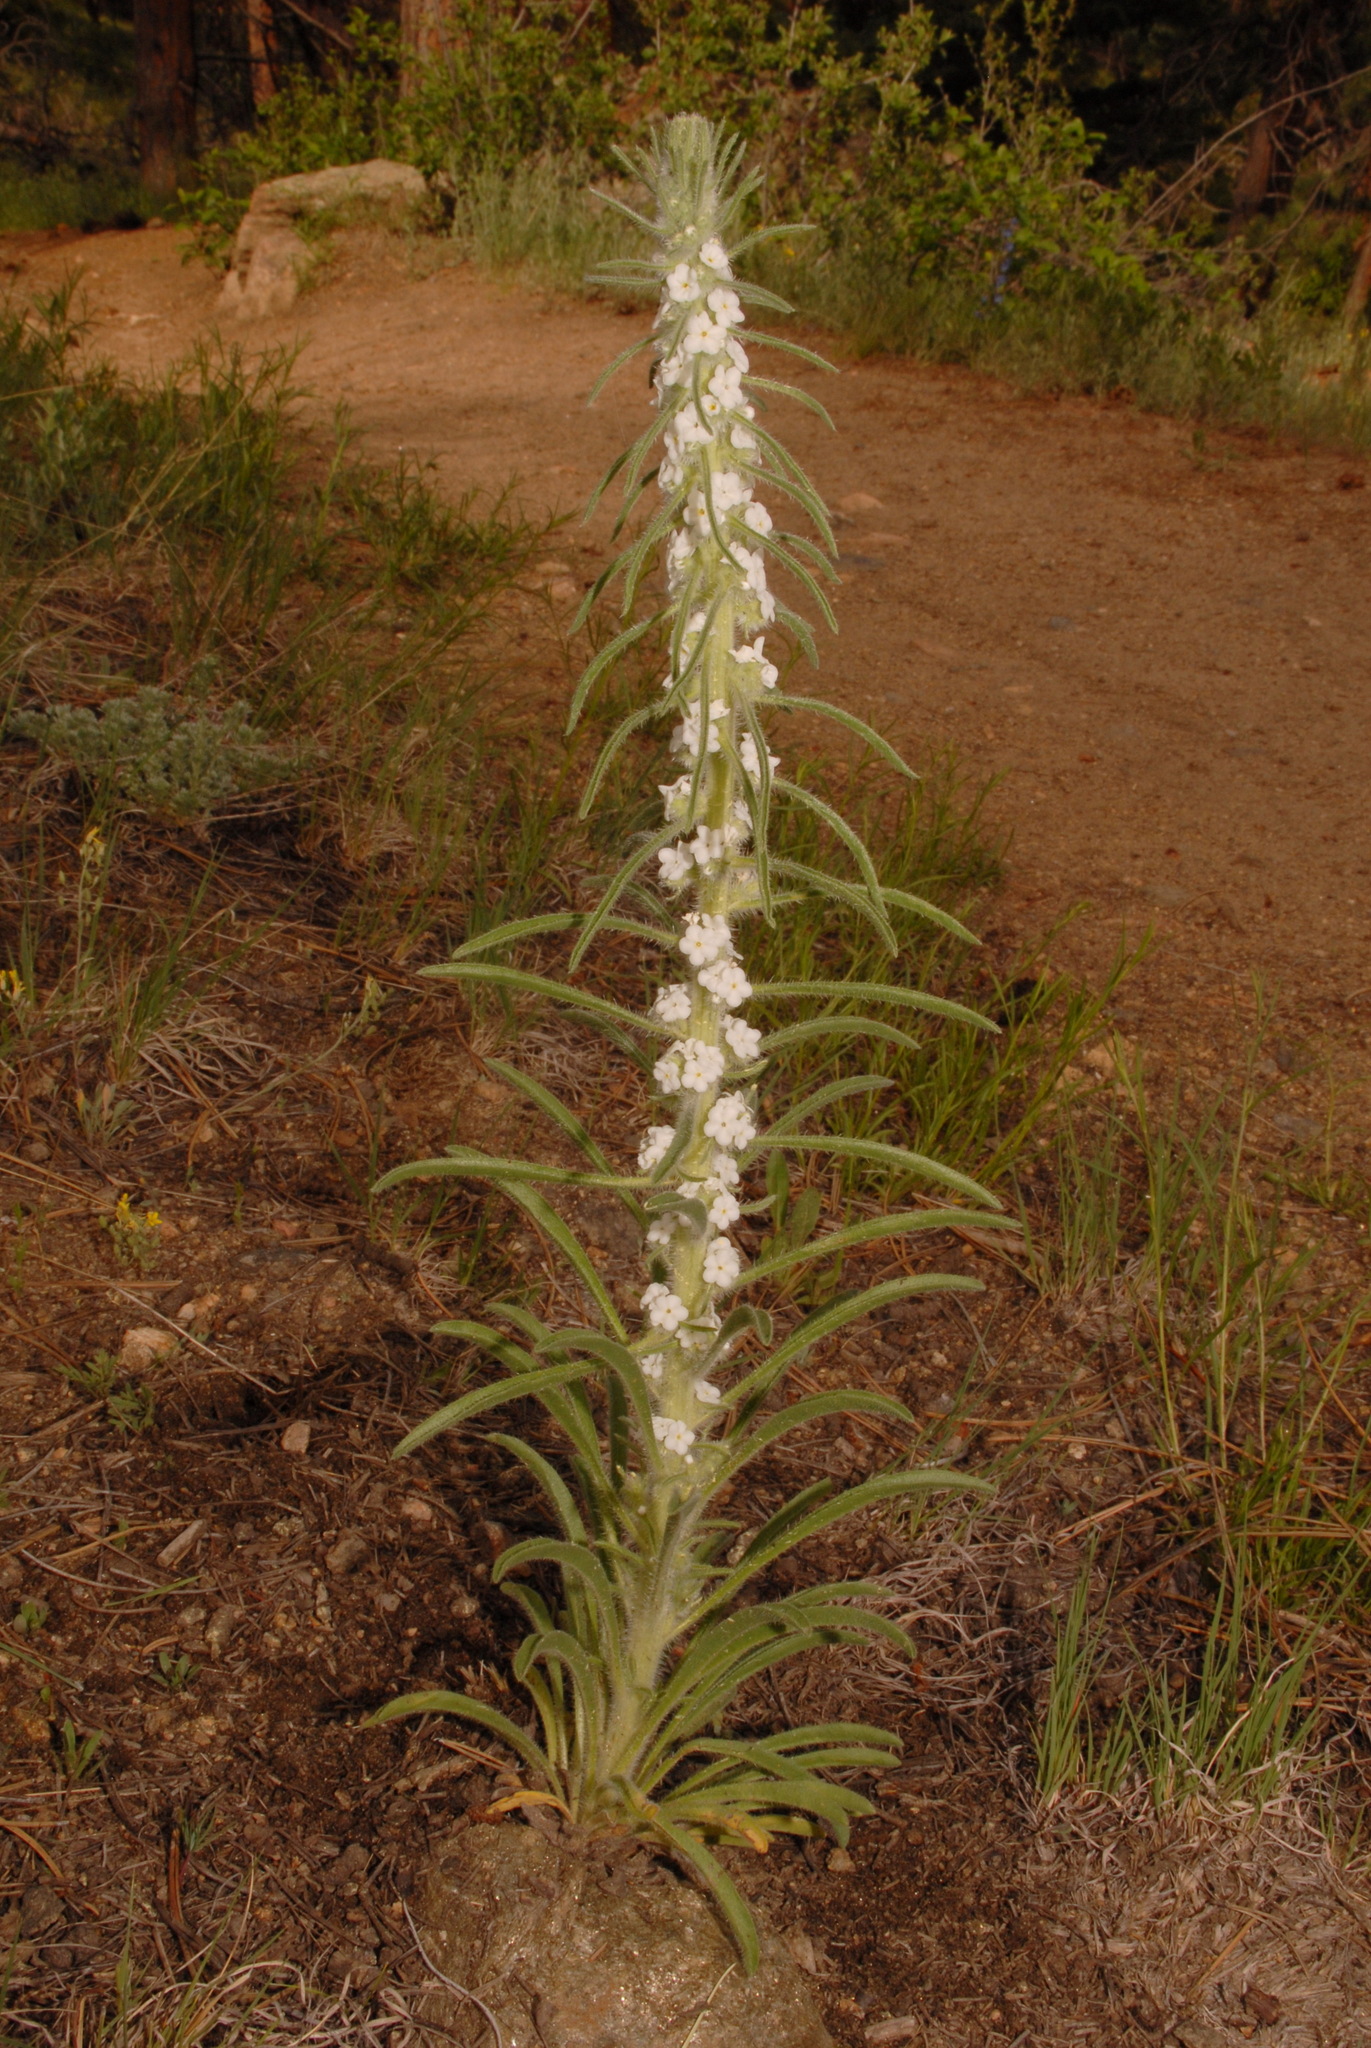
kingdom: Plantae
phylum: Tracheophyta
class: Magnoliopsida
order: Boraginales
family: Boraginaceae
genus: Oreocarya
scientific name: Oreocarya virgata
